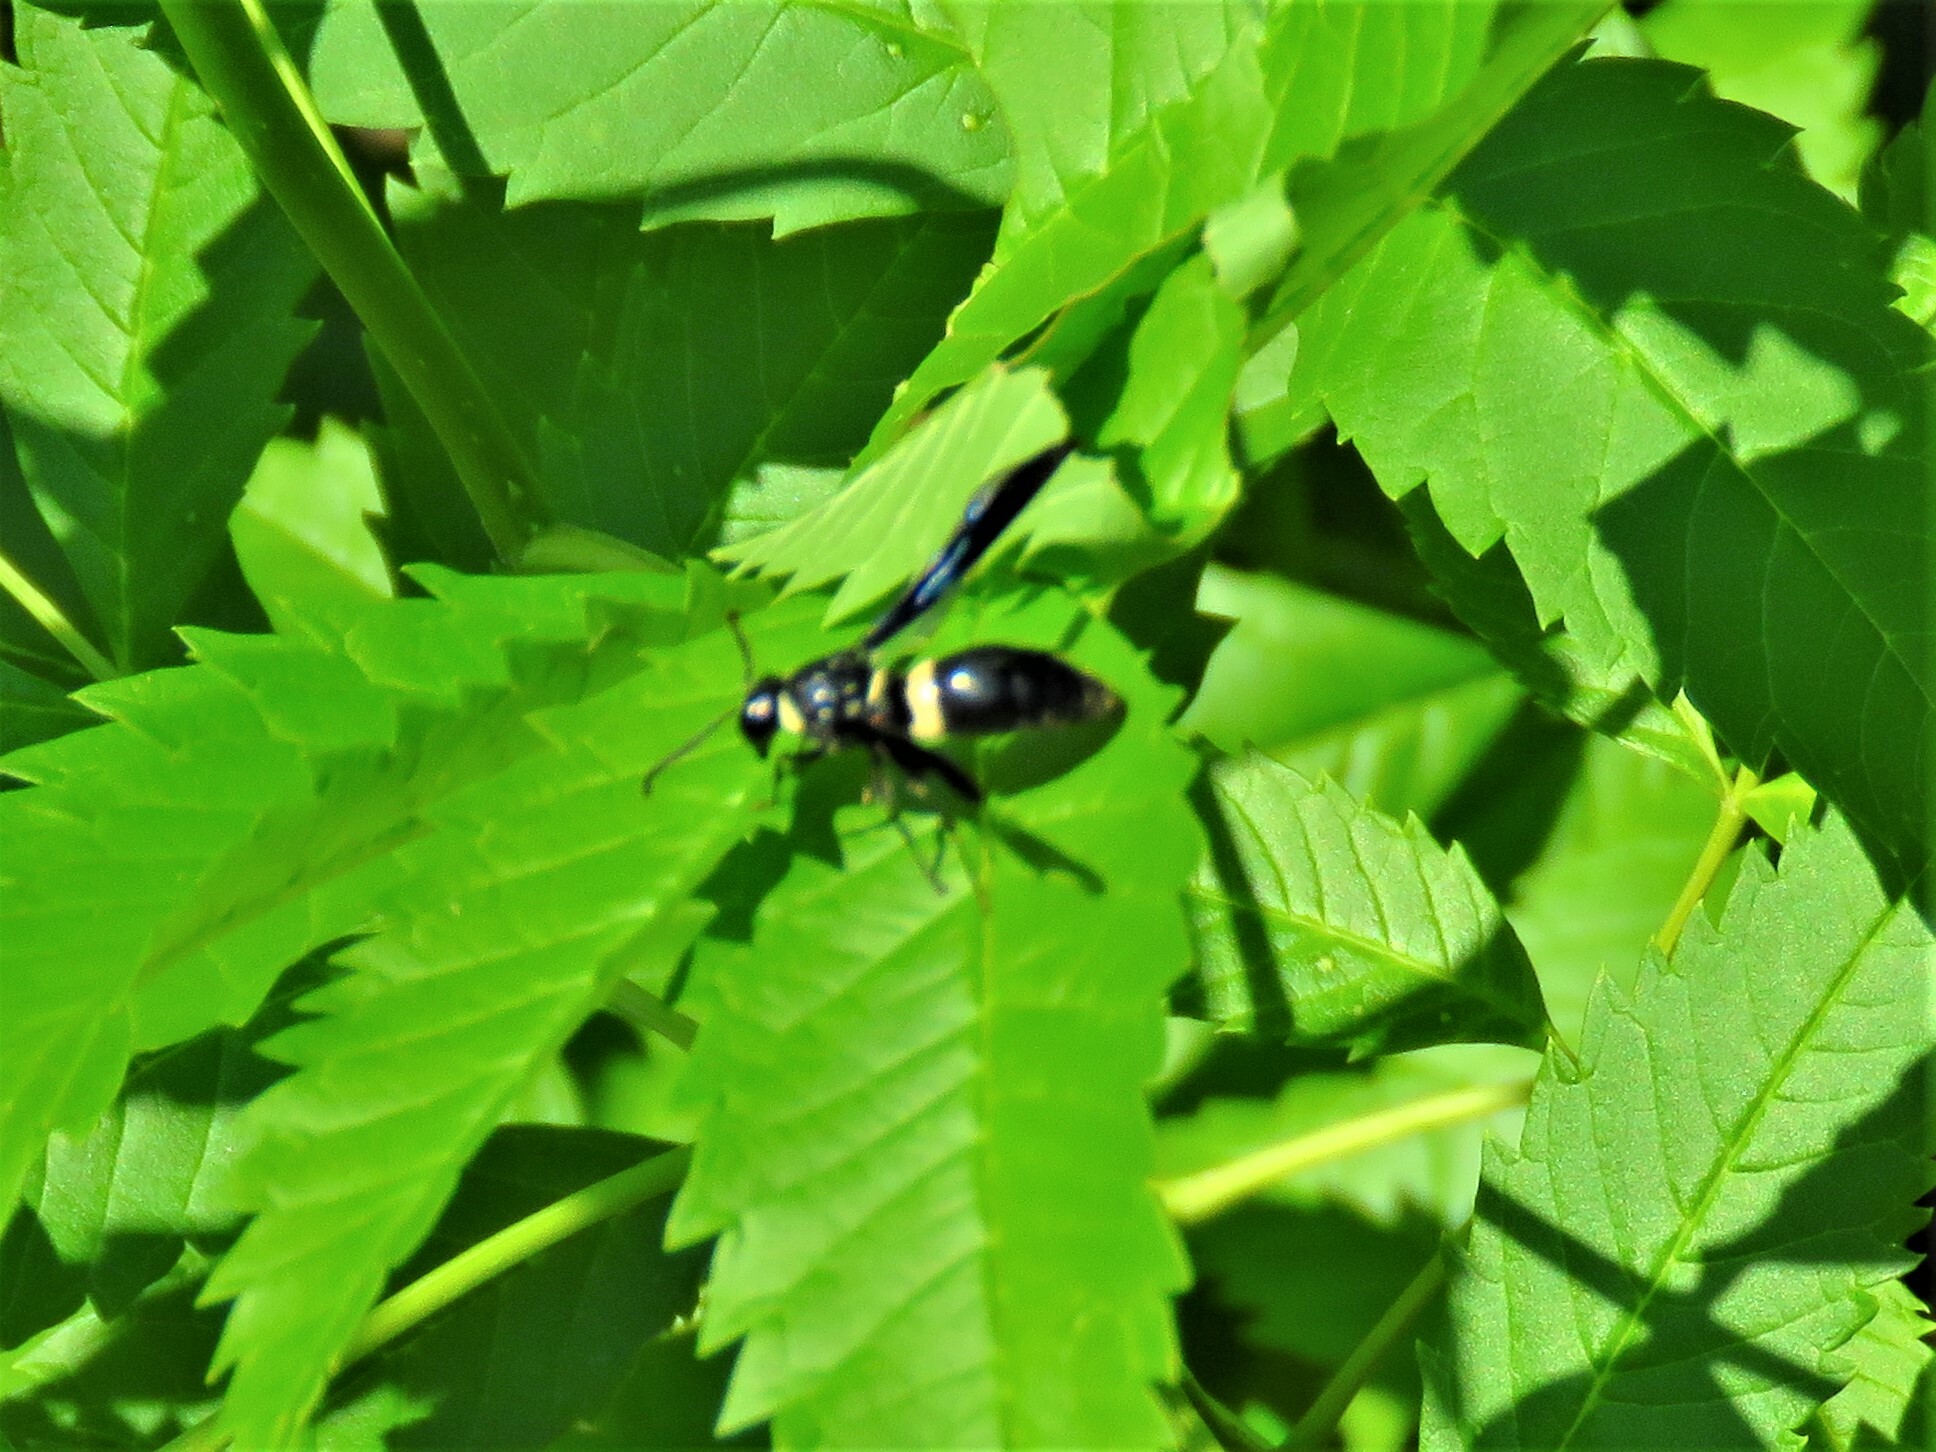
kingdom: Animalia
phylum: Arthropoda
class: Insecta
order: Hymenoptera
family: Eumenidae
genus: Monobia
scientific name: Monobia quadridens
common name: Four-toothed mason wasp
